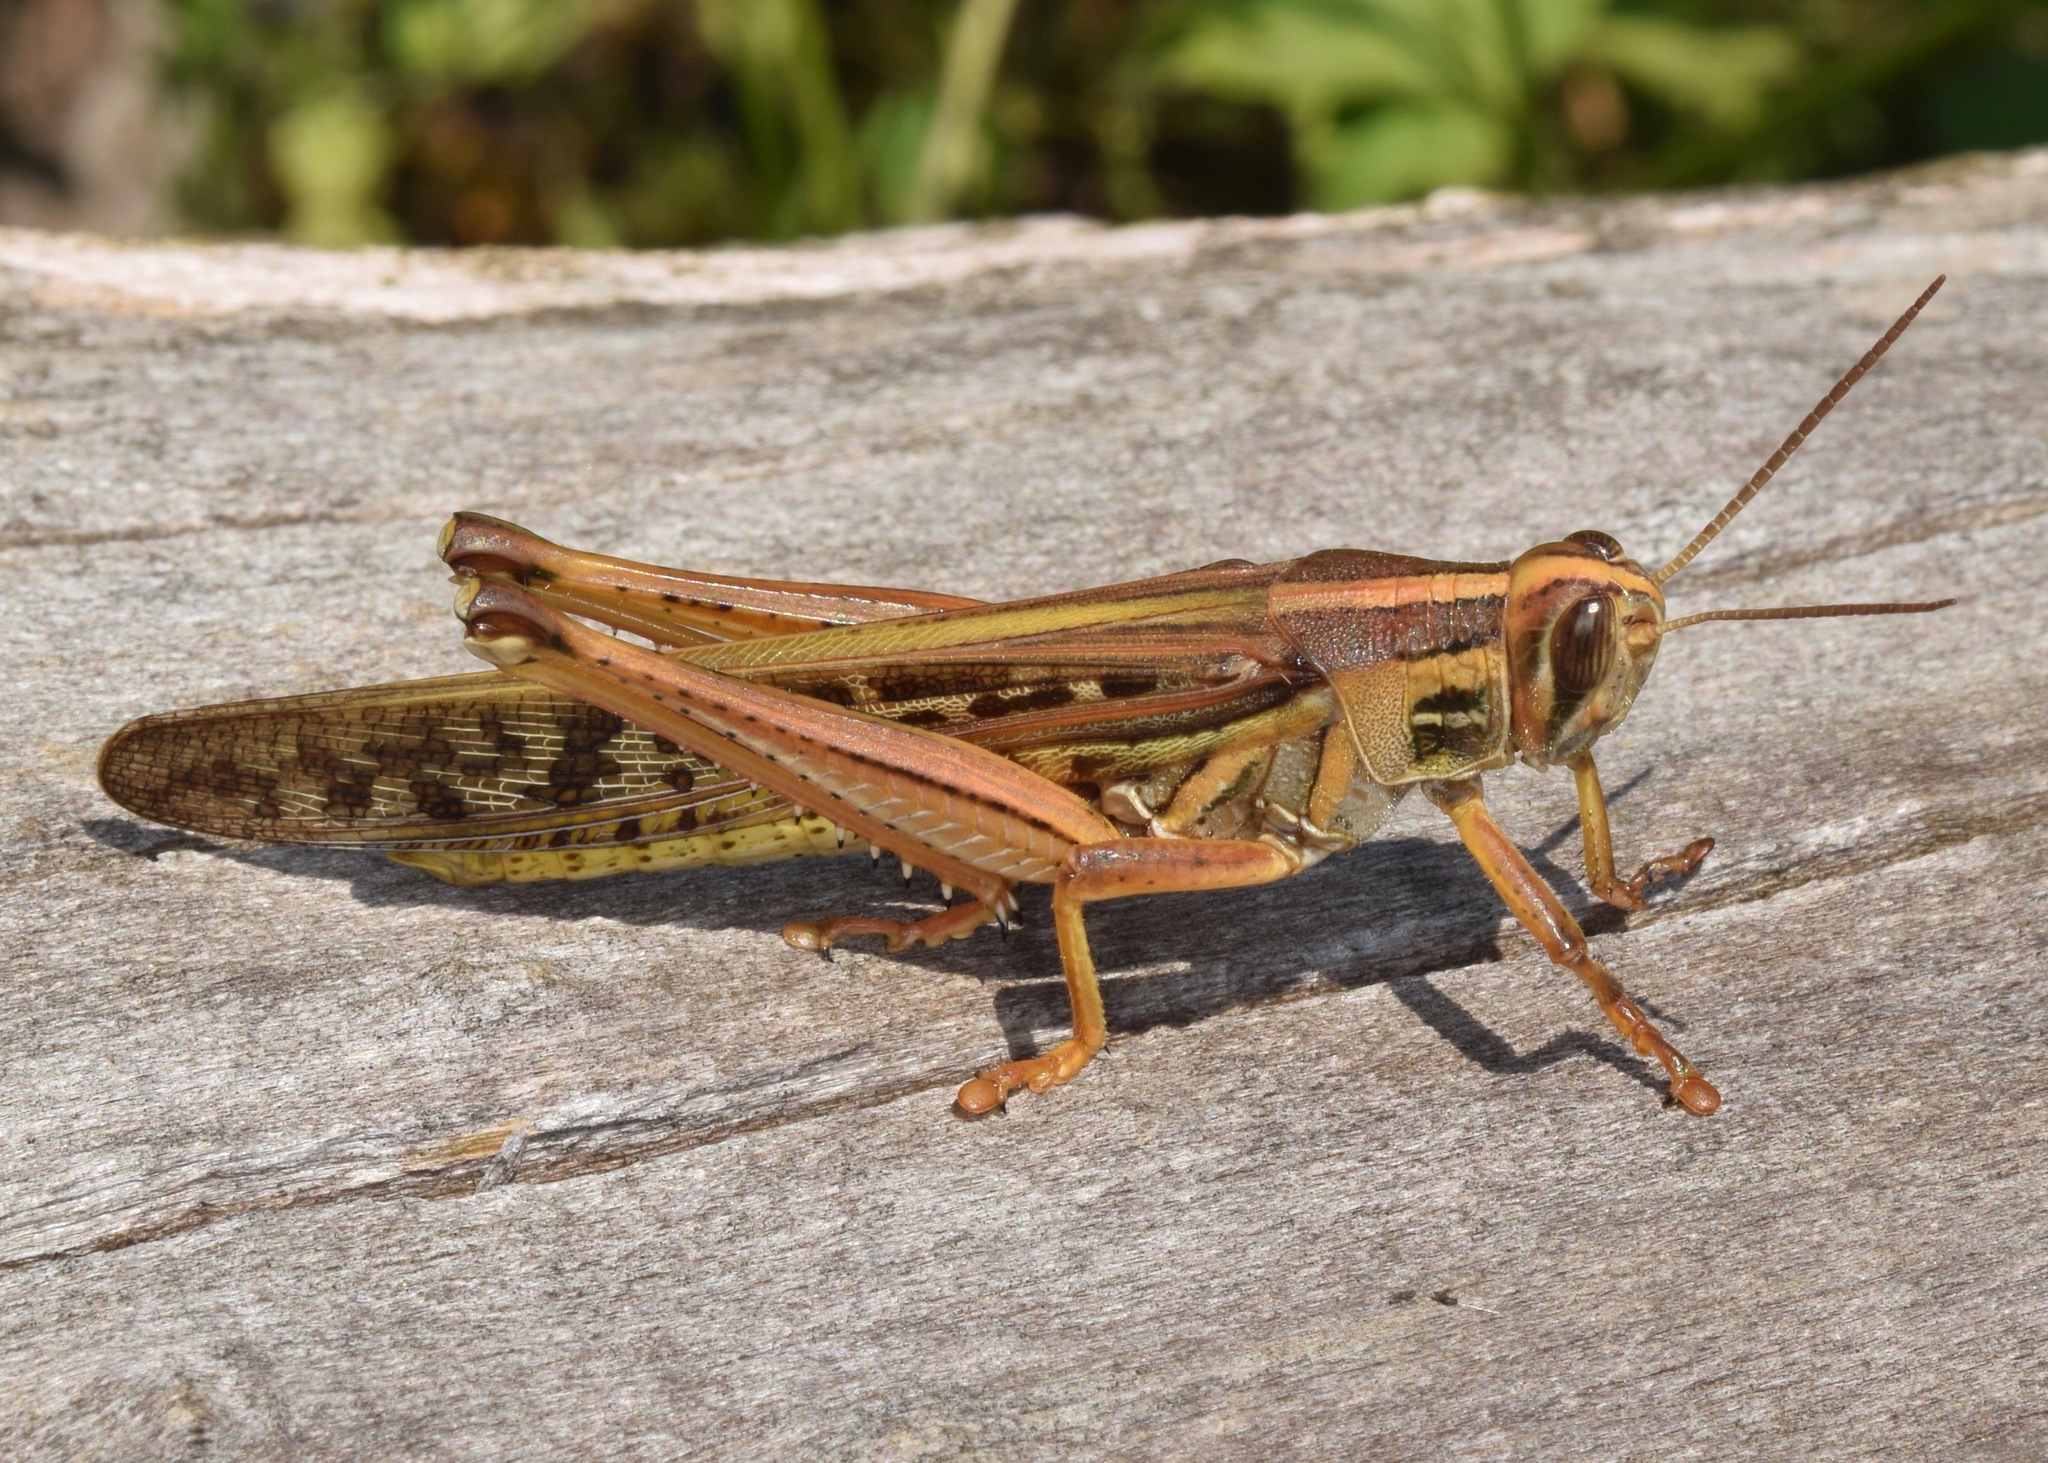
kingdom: Animalia
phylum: Arthropoda
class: Insecta
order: Orthoptera
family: Acrididae
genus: Schistocerca
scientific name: Schistocerca americana
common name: American bird locust
